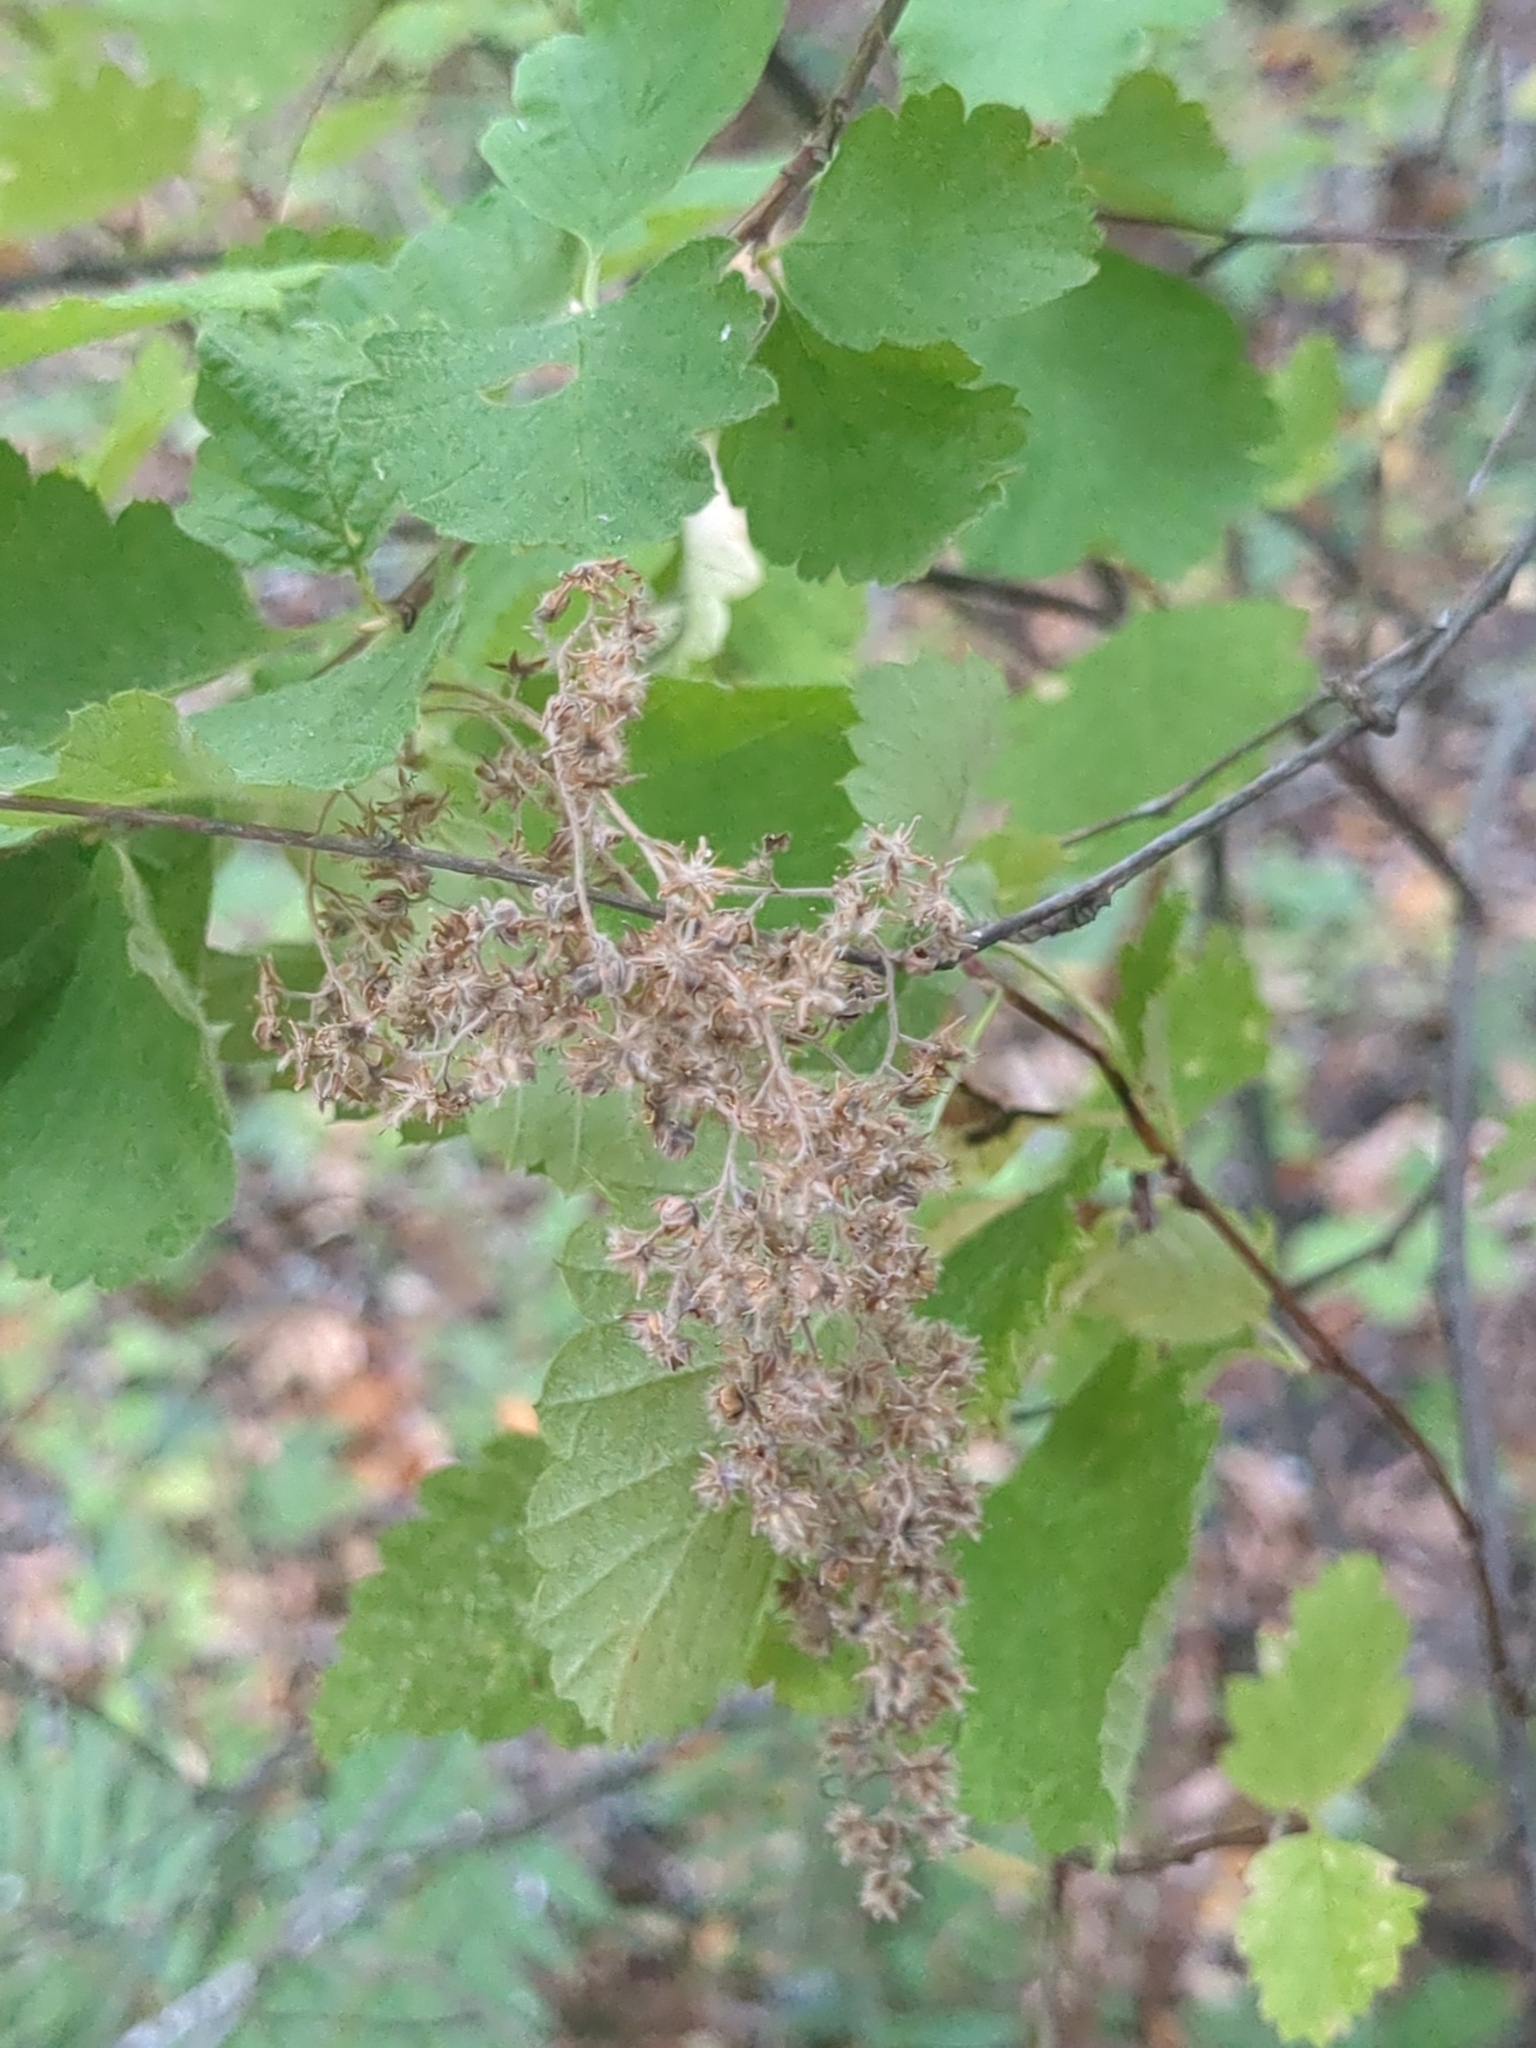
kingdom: Plantae
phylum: Tracheophyta
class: Magnoliopsida
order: Rosales
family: Rosaceae
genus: Holodiscus
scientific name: Holodiscus discolor
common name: Oceanspray
